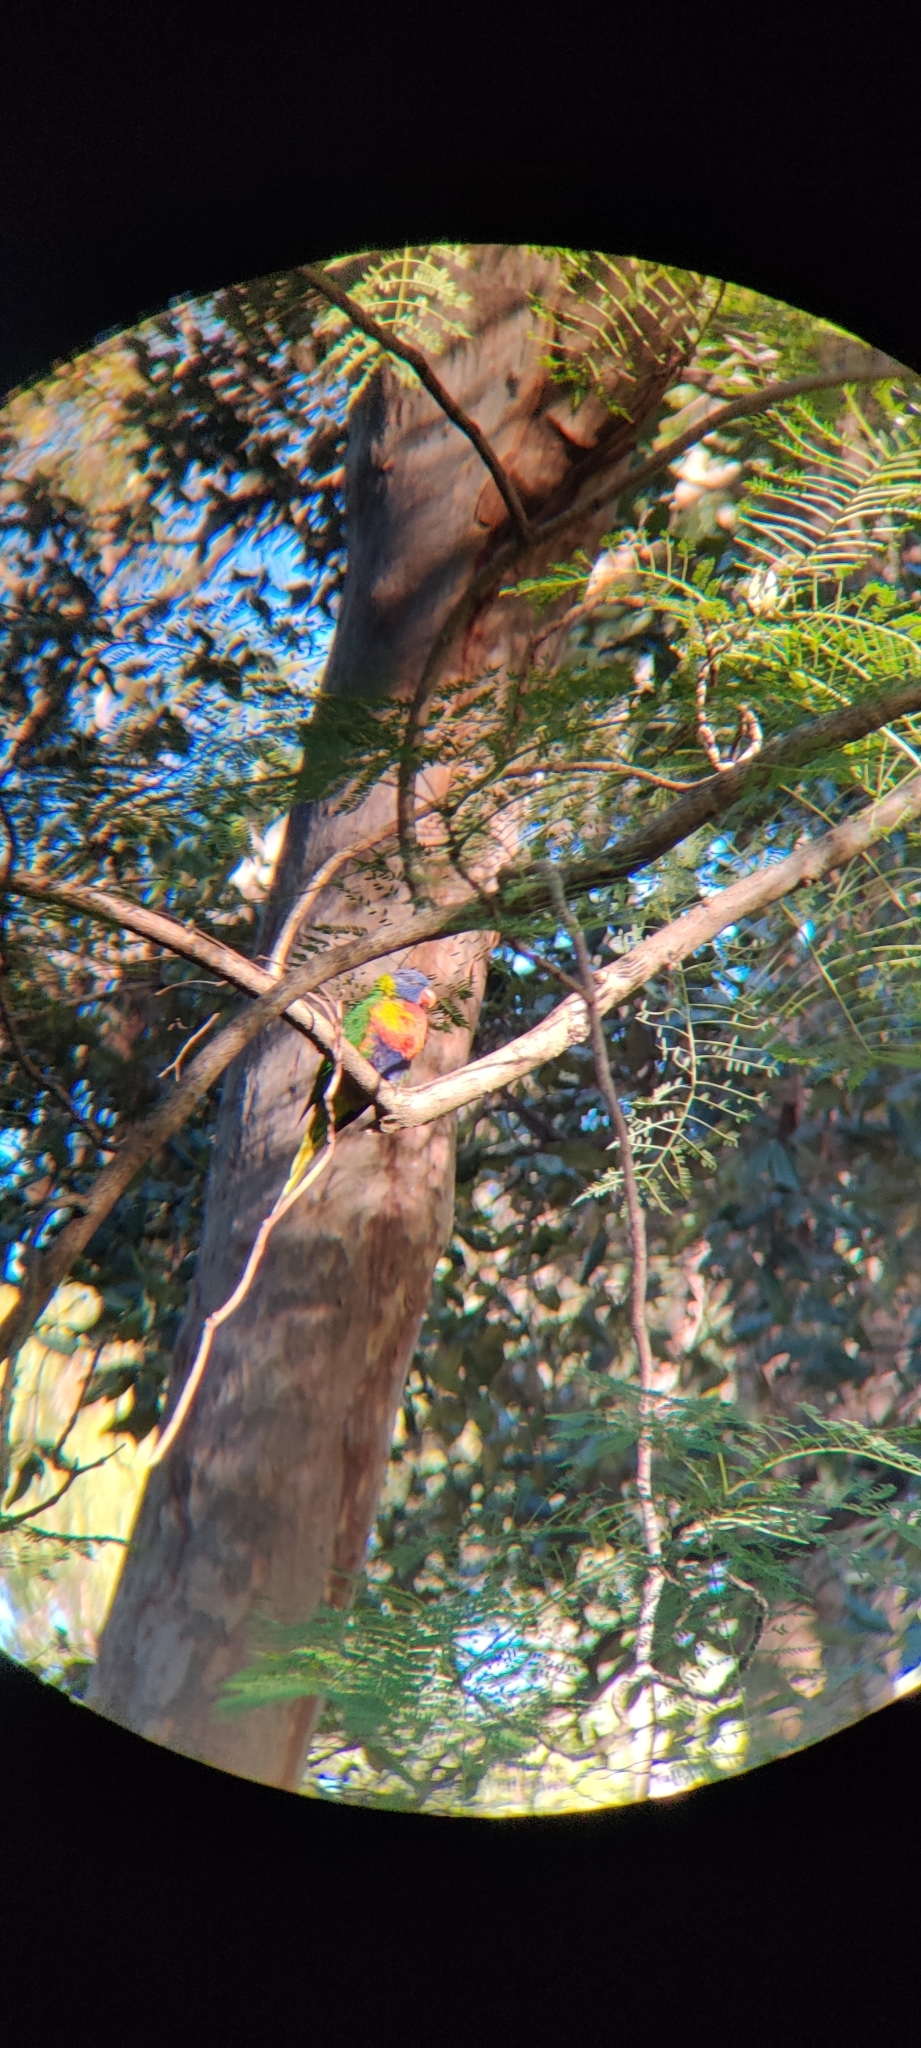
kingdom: Animalia
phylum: Chordata
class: Aves
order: Psittaciformes
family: Psittacidae
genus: Trichoglossus
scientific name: Trichoglossus haematodus
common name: Coconut lorikeet
